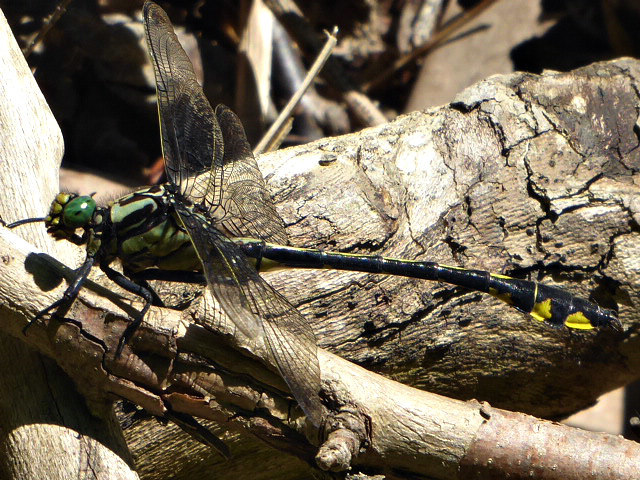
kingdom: Animalia
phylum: Arthropoda
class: Insecta
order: Odonata
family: Gomphidae
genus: Gomphurus
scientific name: Gomphurus lineatifrons
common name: Splendid clubtail
